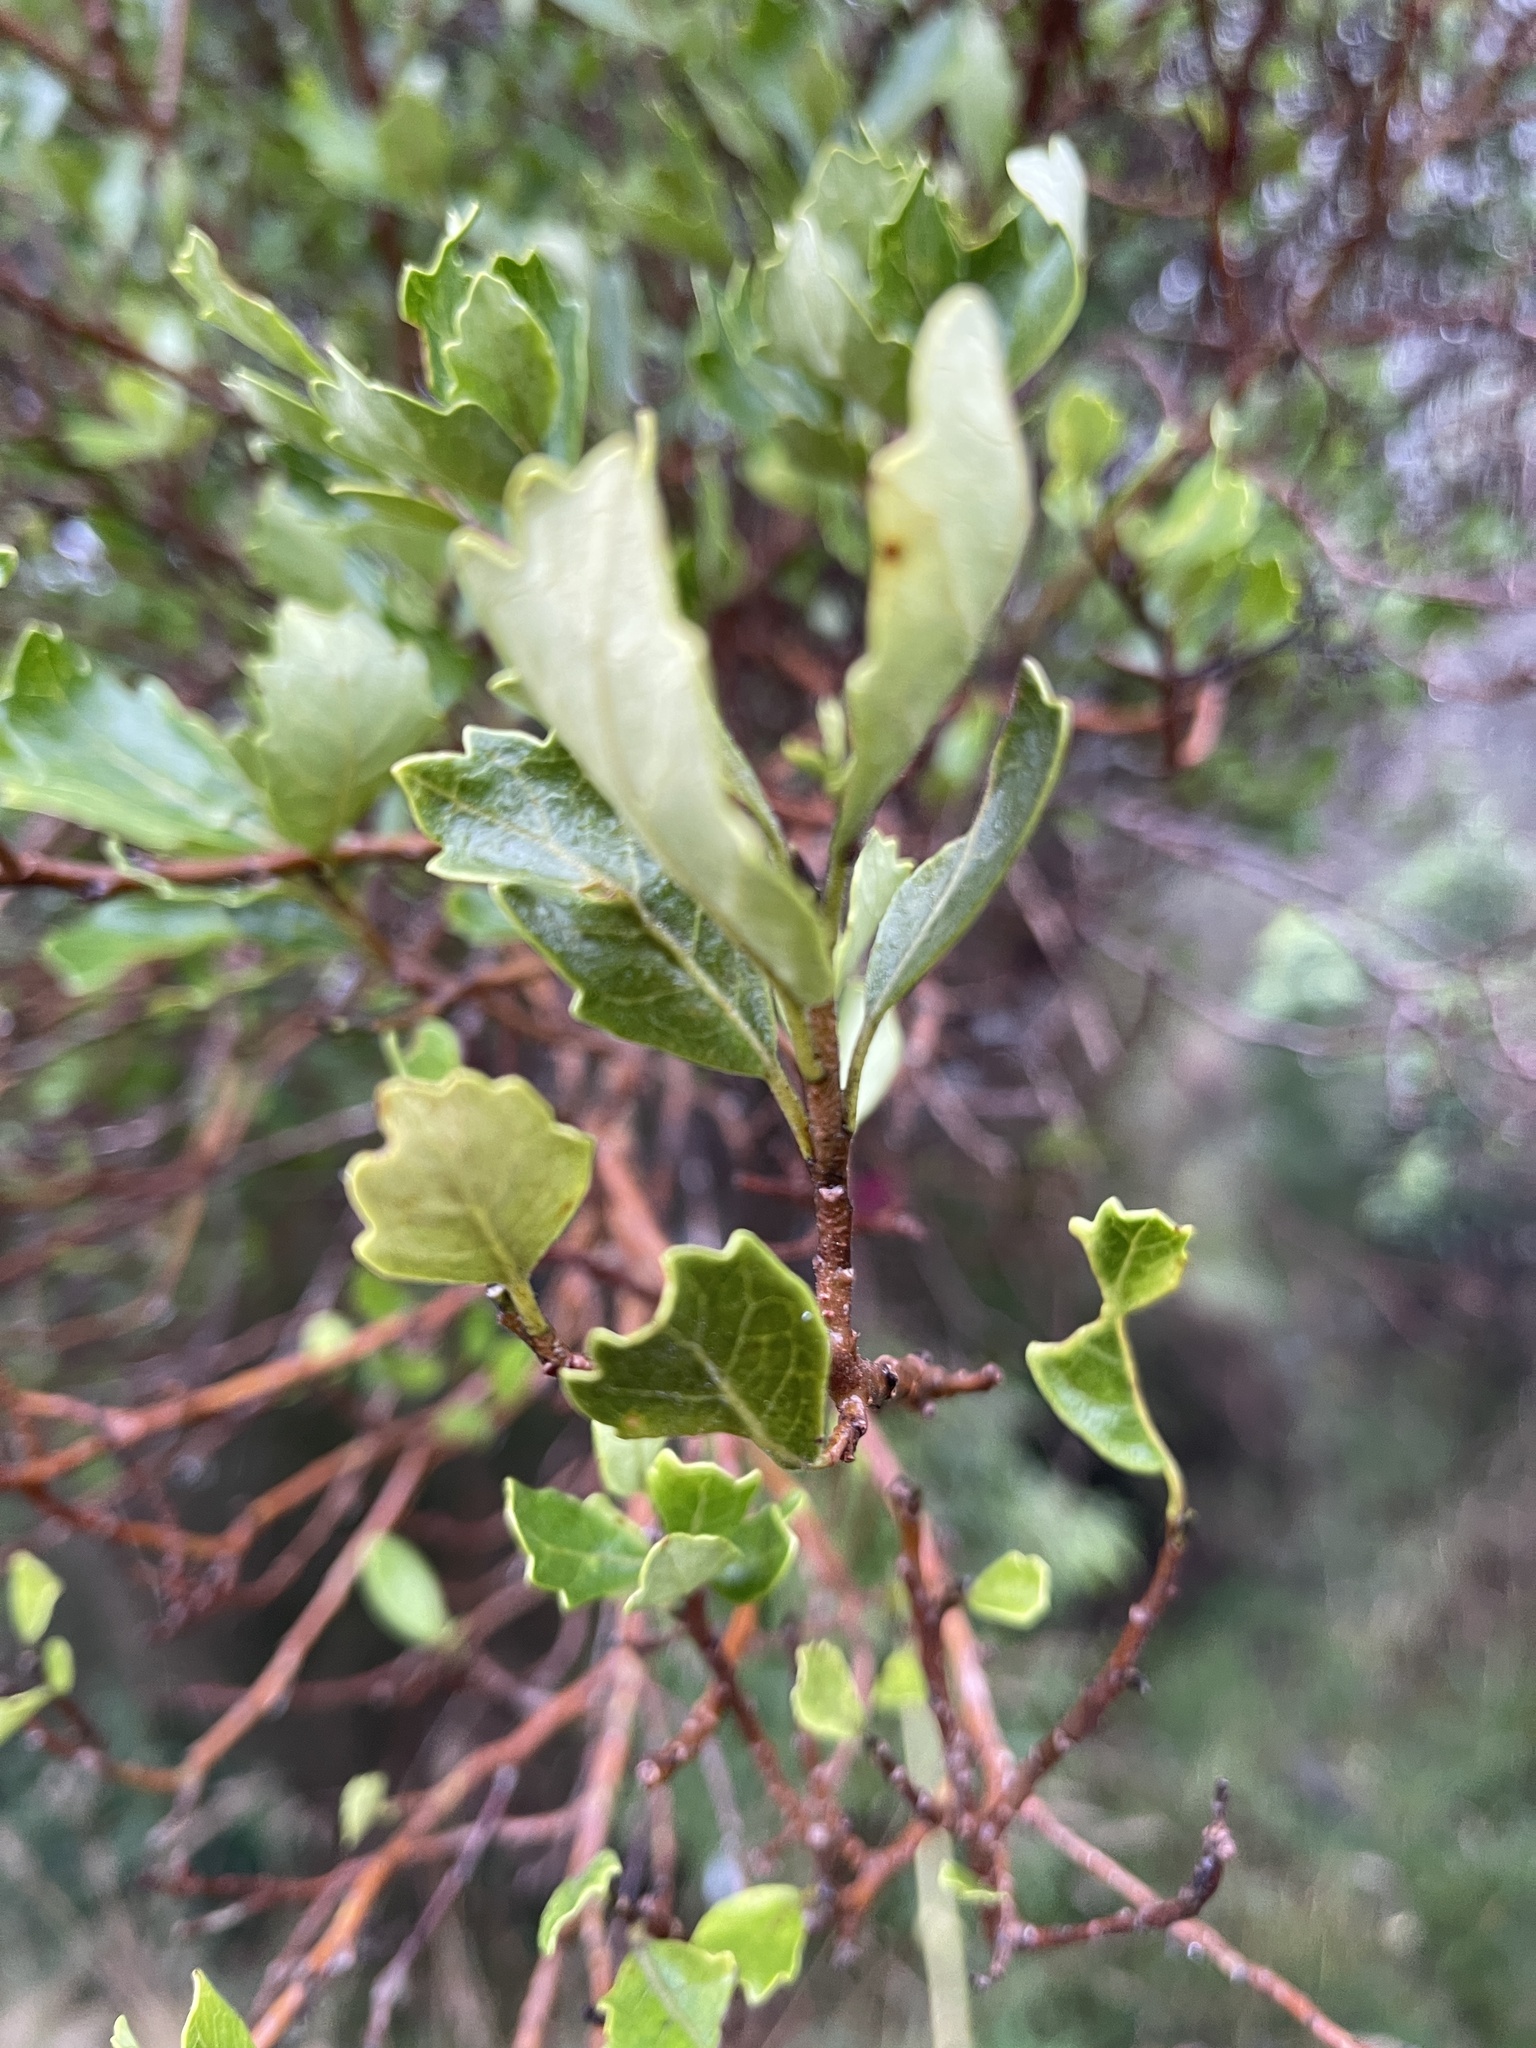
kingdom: Plantae
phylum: Tracheophyta
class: Magnoliopsida
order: Apiales
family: Pennantiaceae
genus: Pennantia
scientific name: Pennantia corymbosa
